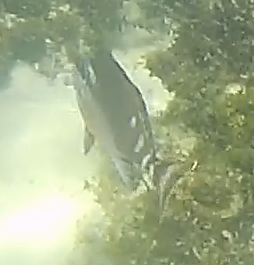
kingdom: Animalia
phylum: Chordata
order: Perciformes
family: Latridae
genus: Morwong
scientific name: Morwong fuscus
